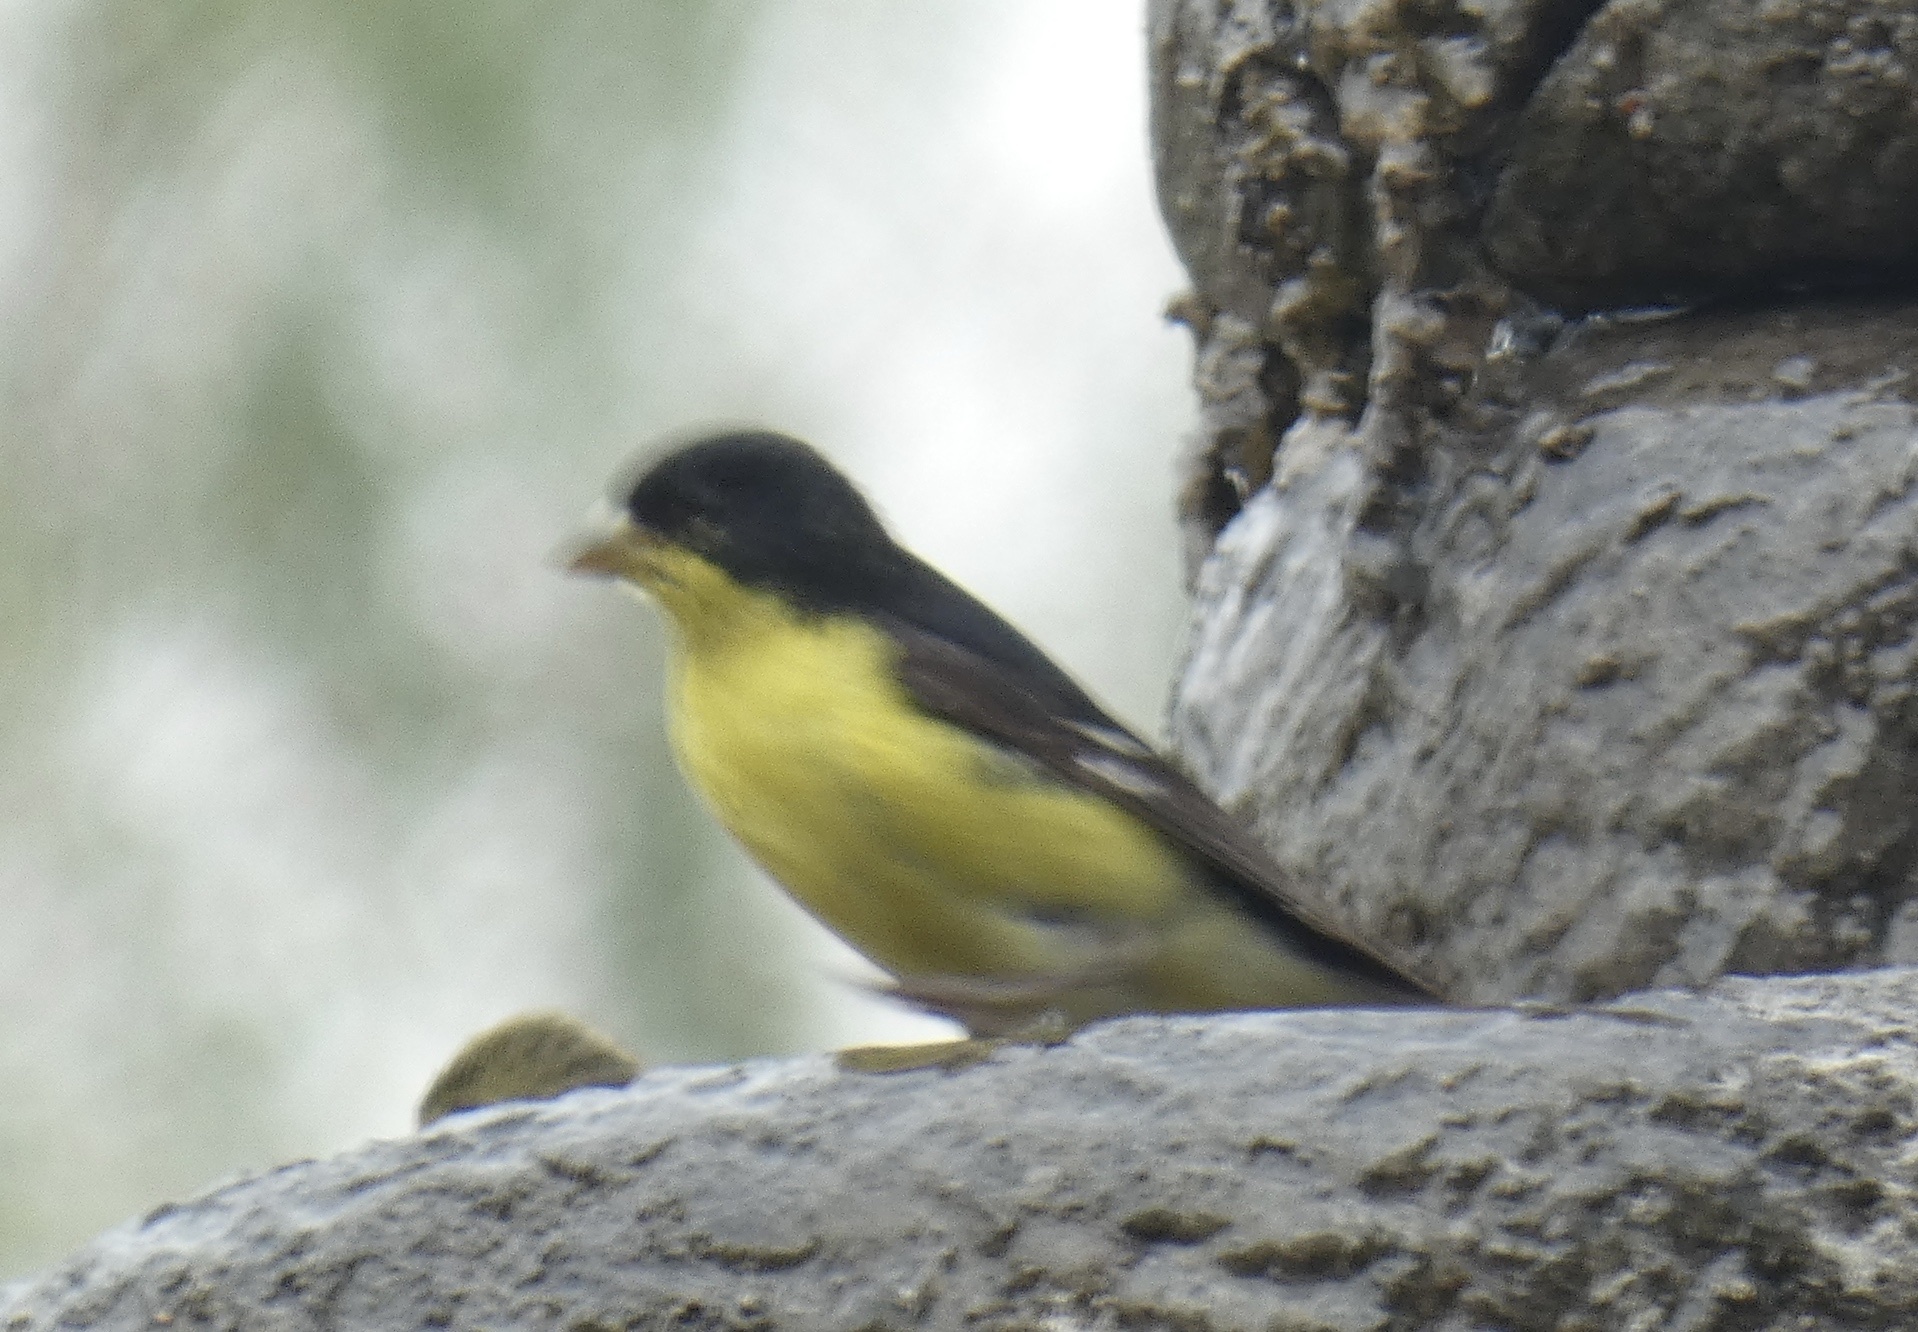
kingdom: Animalia
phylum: Chordata
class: Aves
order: Passeriformes
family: Fringillidae
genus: Spinus
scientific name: Spinus psaltria
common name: Lesser goldfinch
